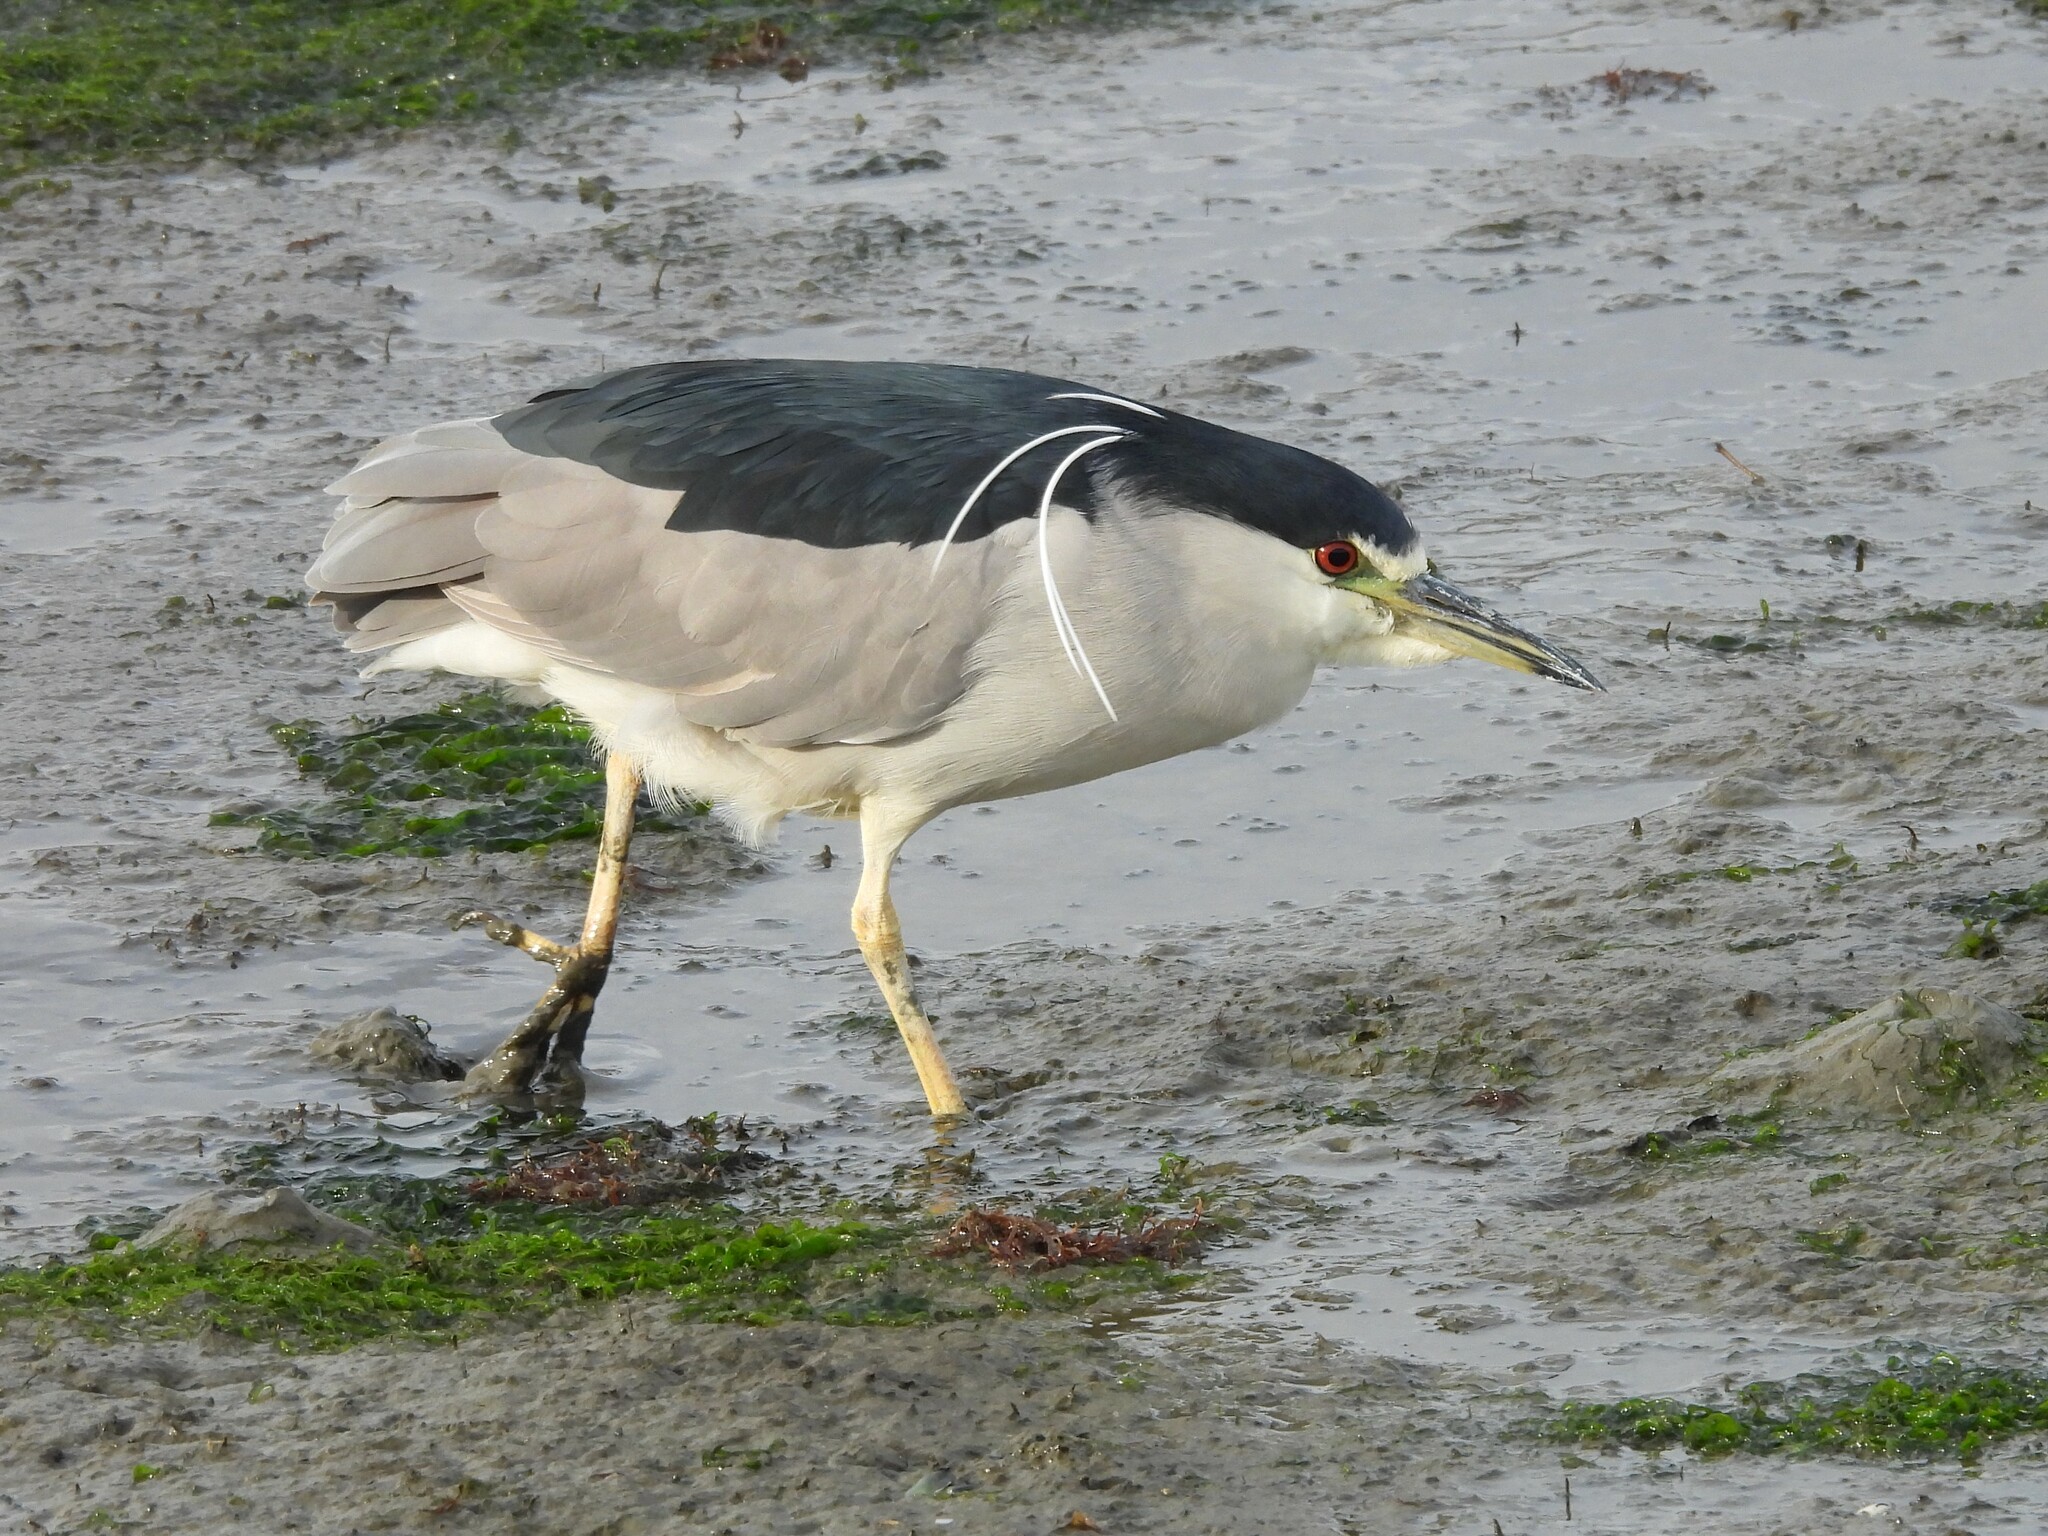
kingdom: Animalia
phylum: Chordata
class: Aves
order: Pelecaniformes
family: Ardeidae
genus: Nycticorax
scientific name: Nycticorax nycticorax
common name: Black-crowned night heron
